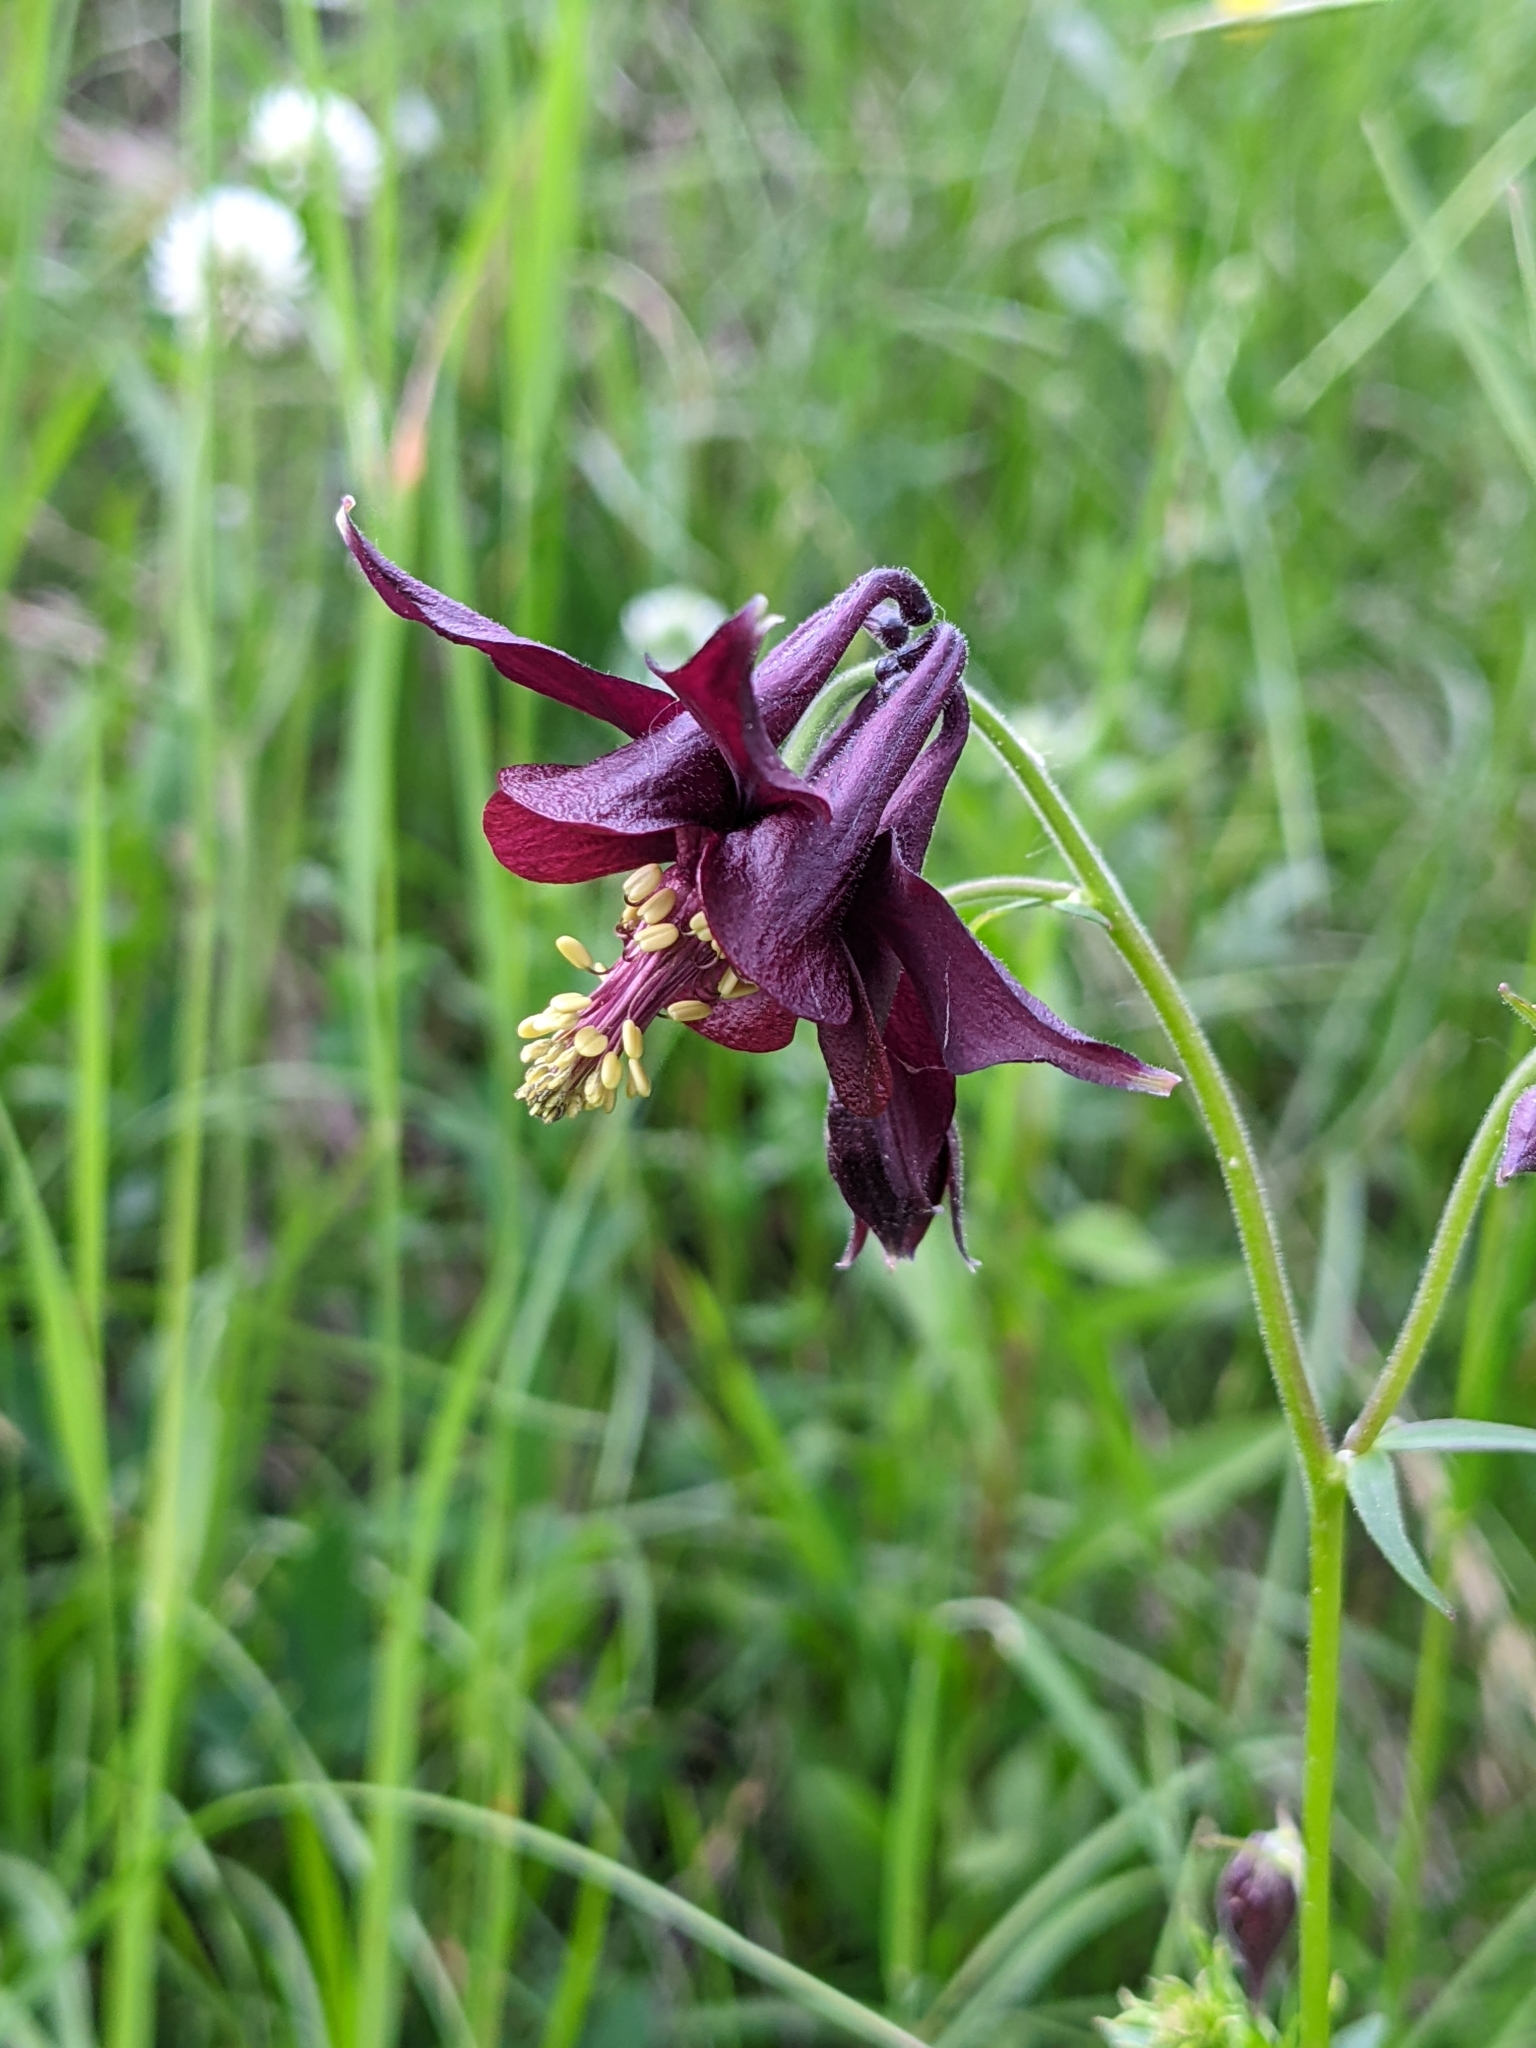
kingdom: Plantae
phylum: Tracheophyta
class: Magnoliopsida
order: Ranunculales
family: Ranunculaceae
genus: Aquilegia
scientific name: Aquilegia atrata
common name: Dark columbine
